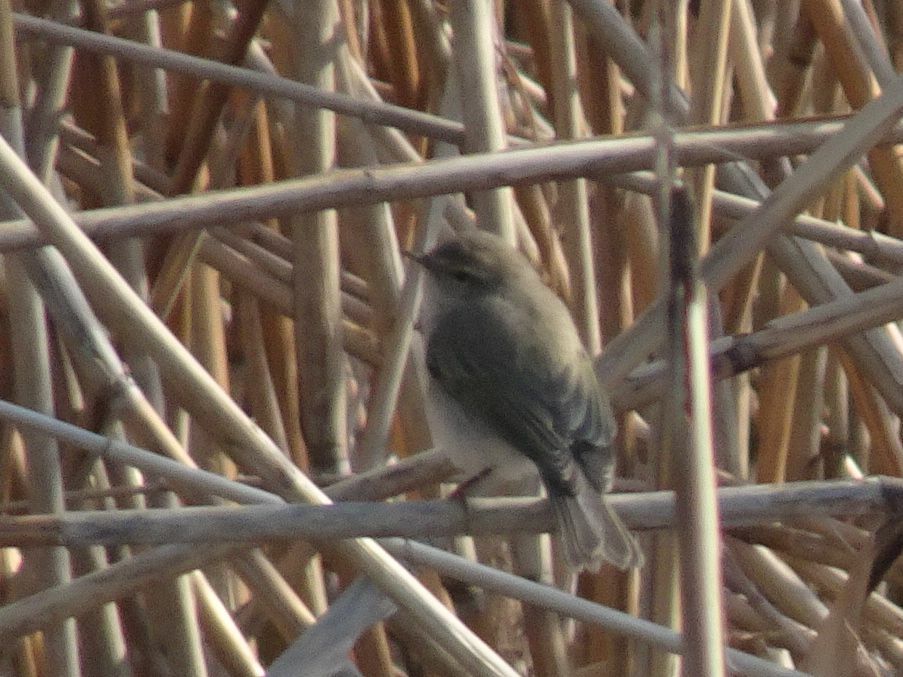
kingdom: Animalia
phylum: Chordata
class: Aves
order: Passeriformes
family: Phylloscopidae
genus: Phylloscopus
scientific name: Phylloscopus collybita
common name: Common chiffchaff
